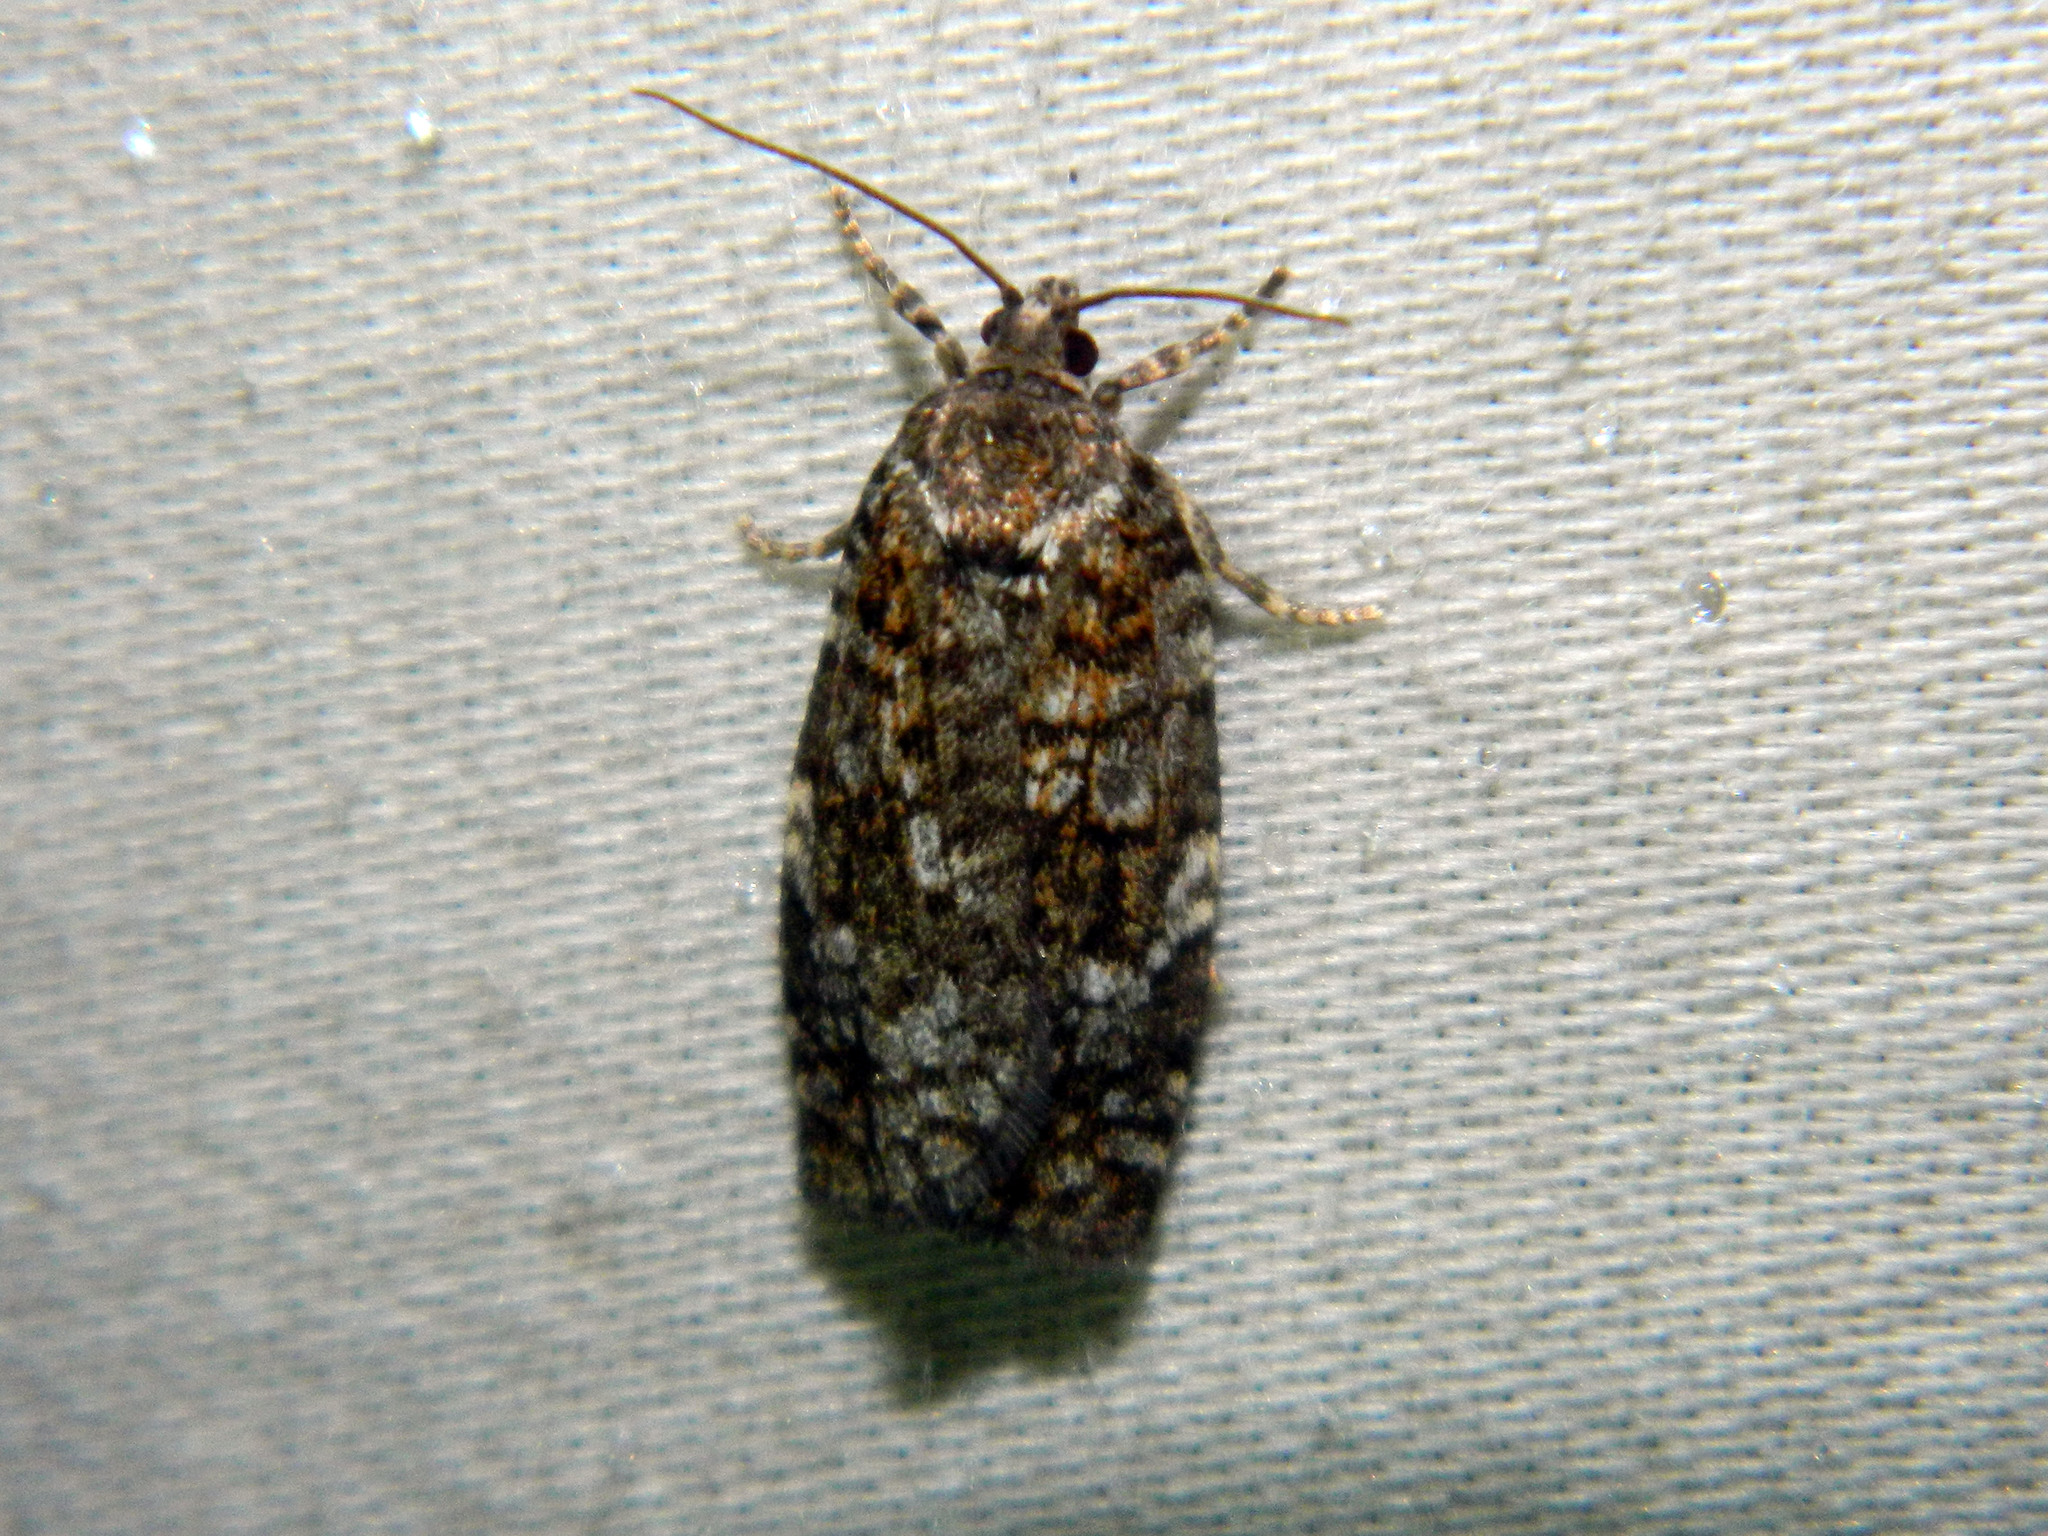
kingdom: Animalia
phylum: Arthropoda
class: Insecta
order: Lepidoptera
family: Tortricidae
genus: Choristoneura
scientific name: Choristoneura fumiferana
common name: Spruce budworm
